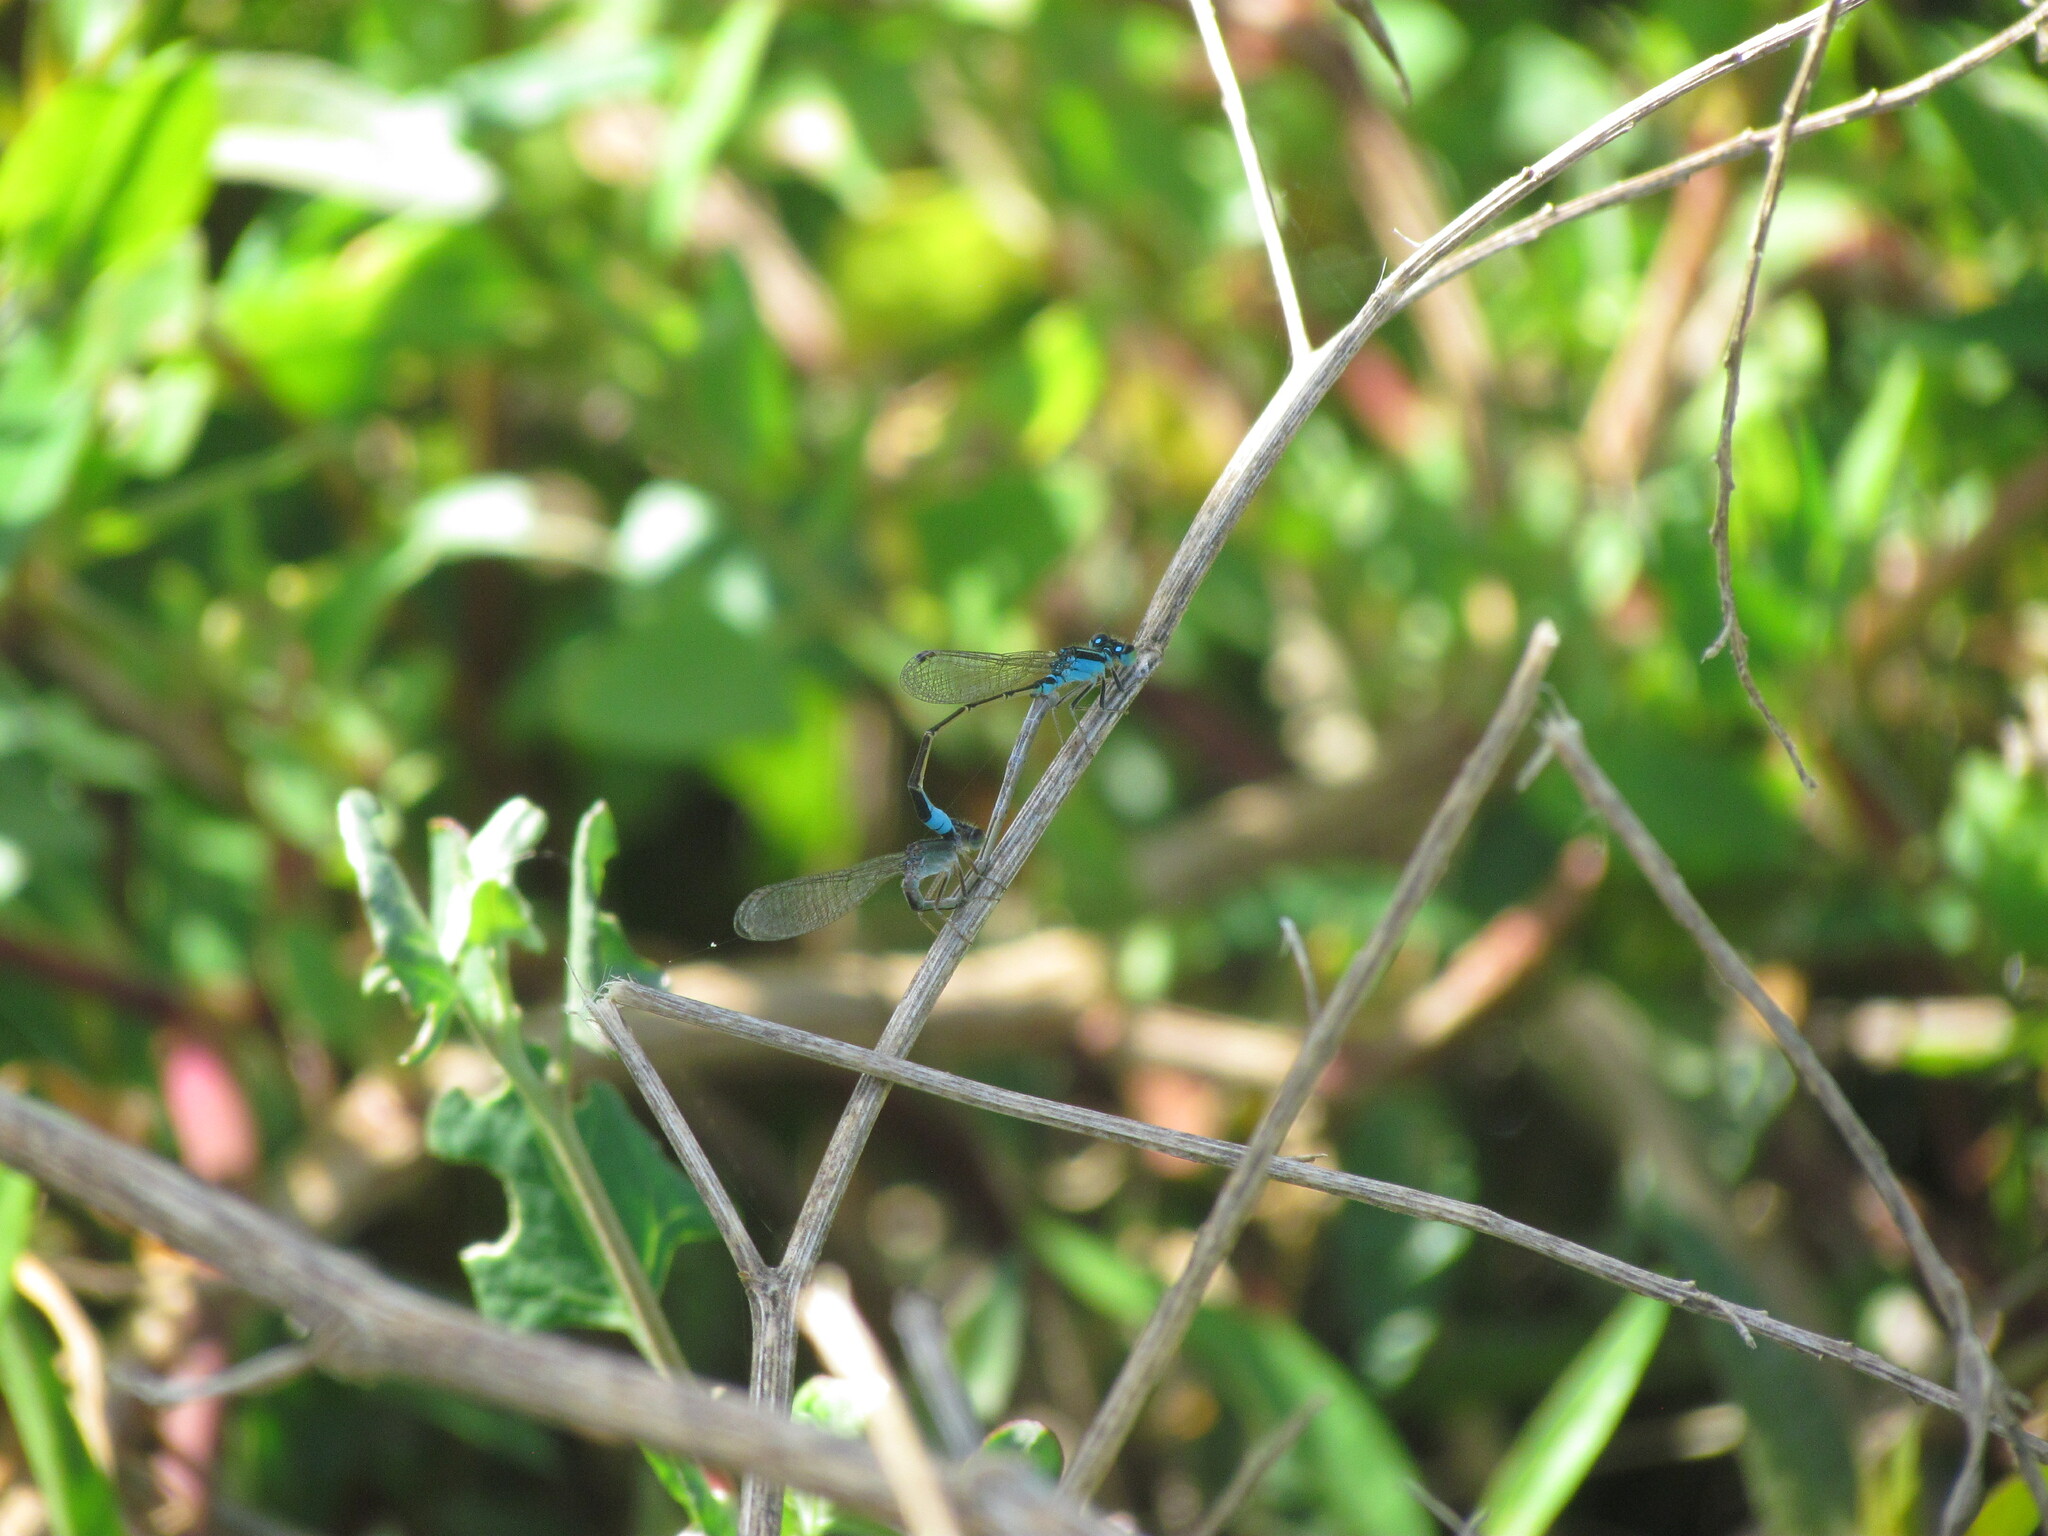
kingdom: Animalia
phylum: Arthropoda
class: Insecta
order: Odonata
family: Coenagrionidae
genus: Ischnura
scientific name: Ischnura fluviatilis
